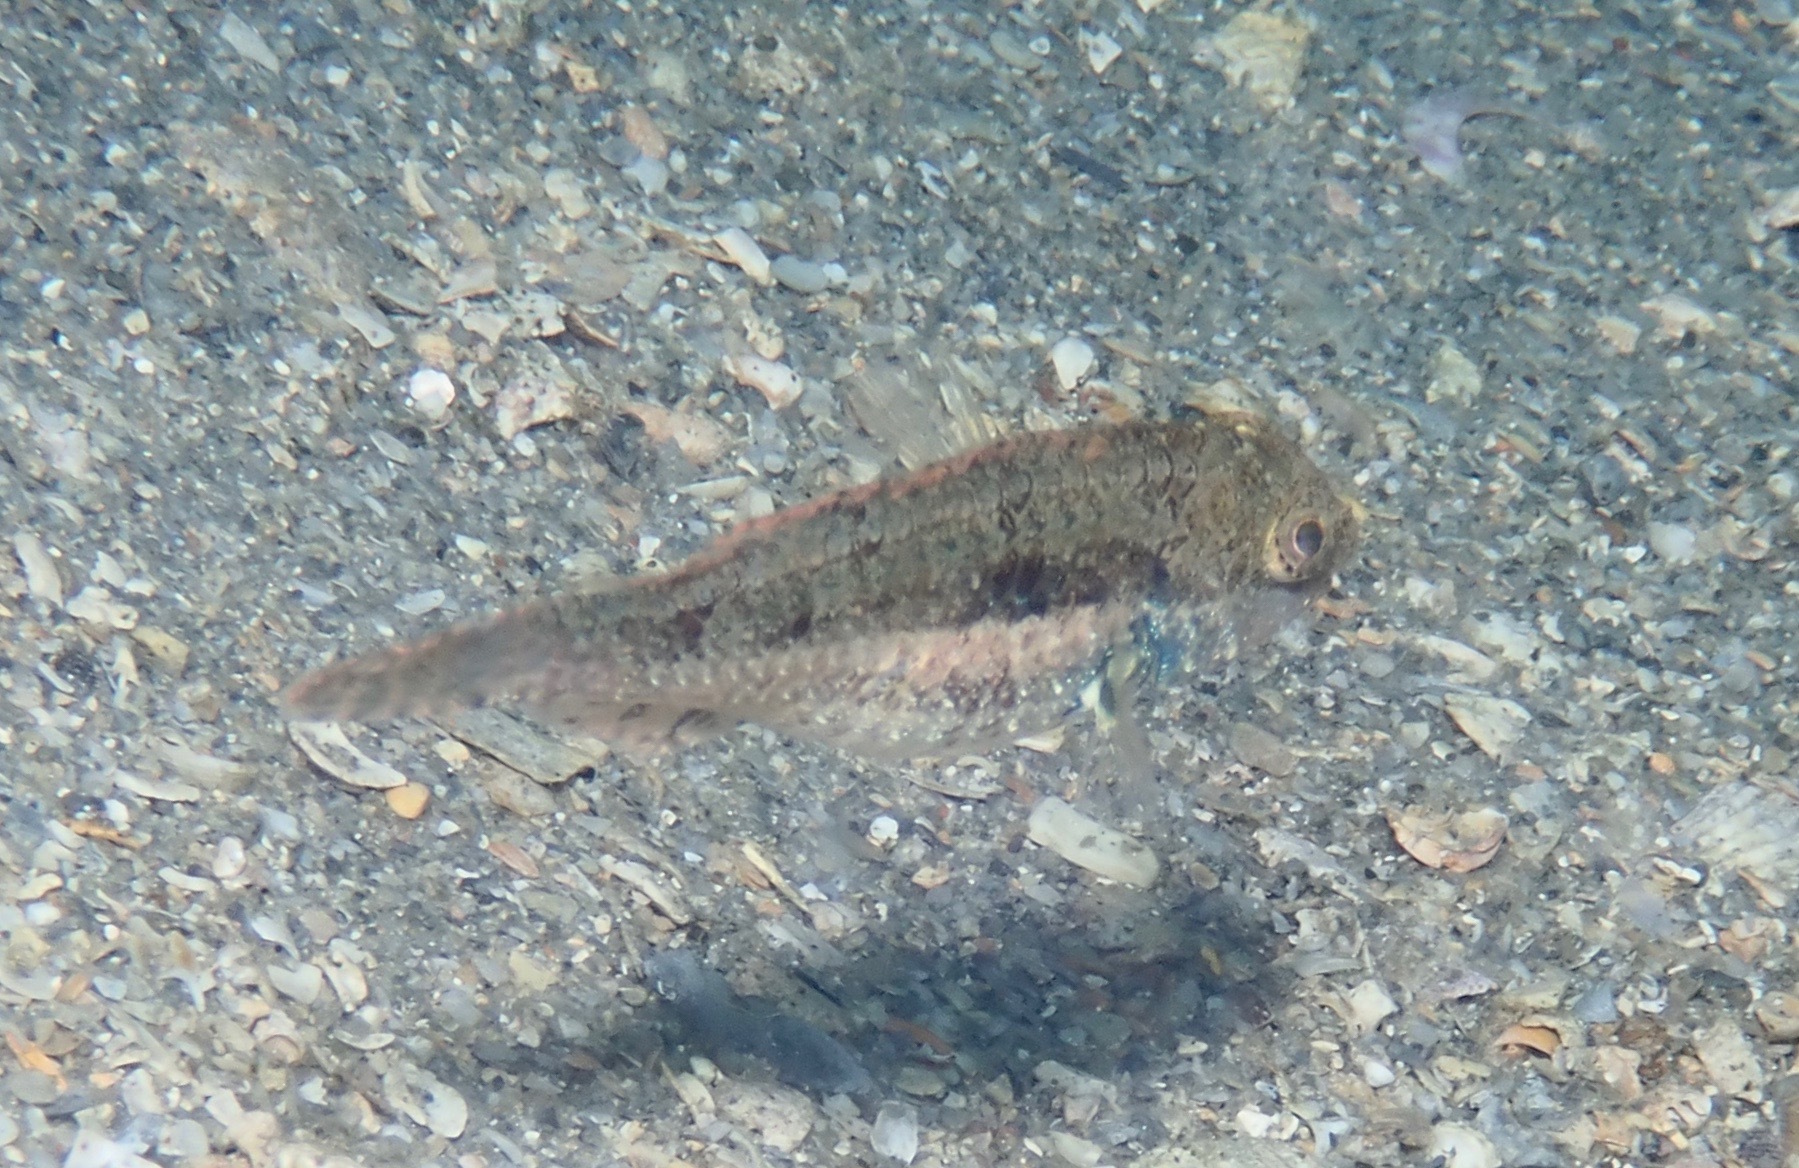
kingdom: Animalia
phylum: Chordata
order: Perciformes
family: Scaridae
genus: Sparisoma
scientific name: Sparisoma radians
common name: Bucktooth parrotfish
